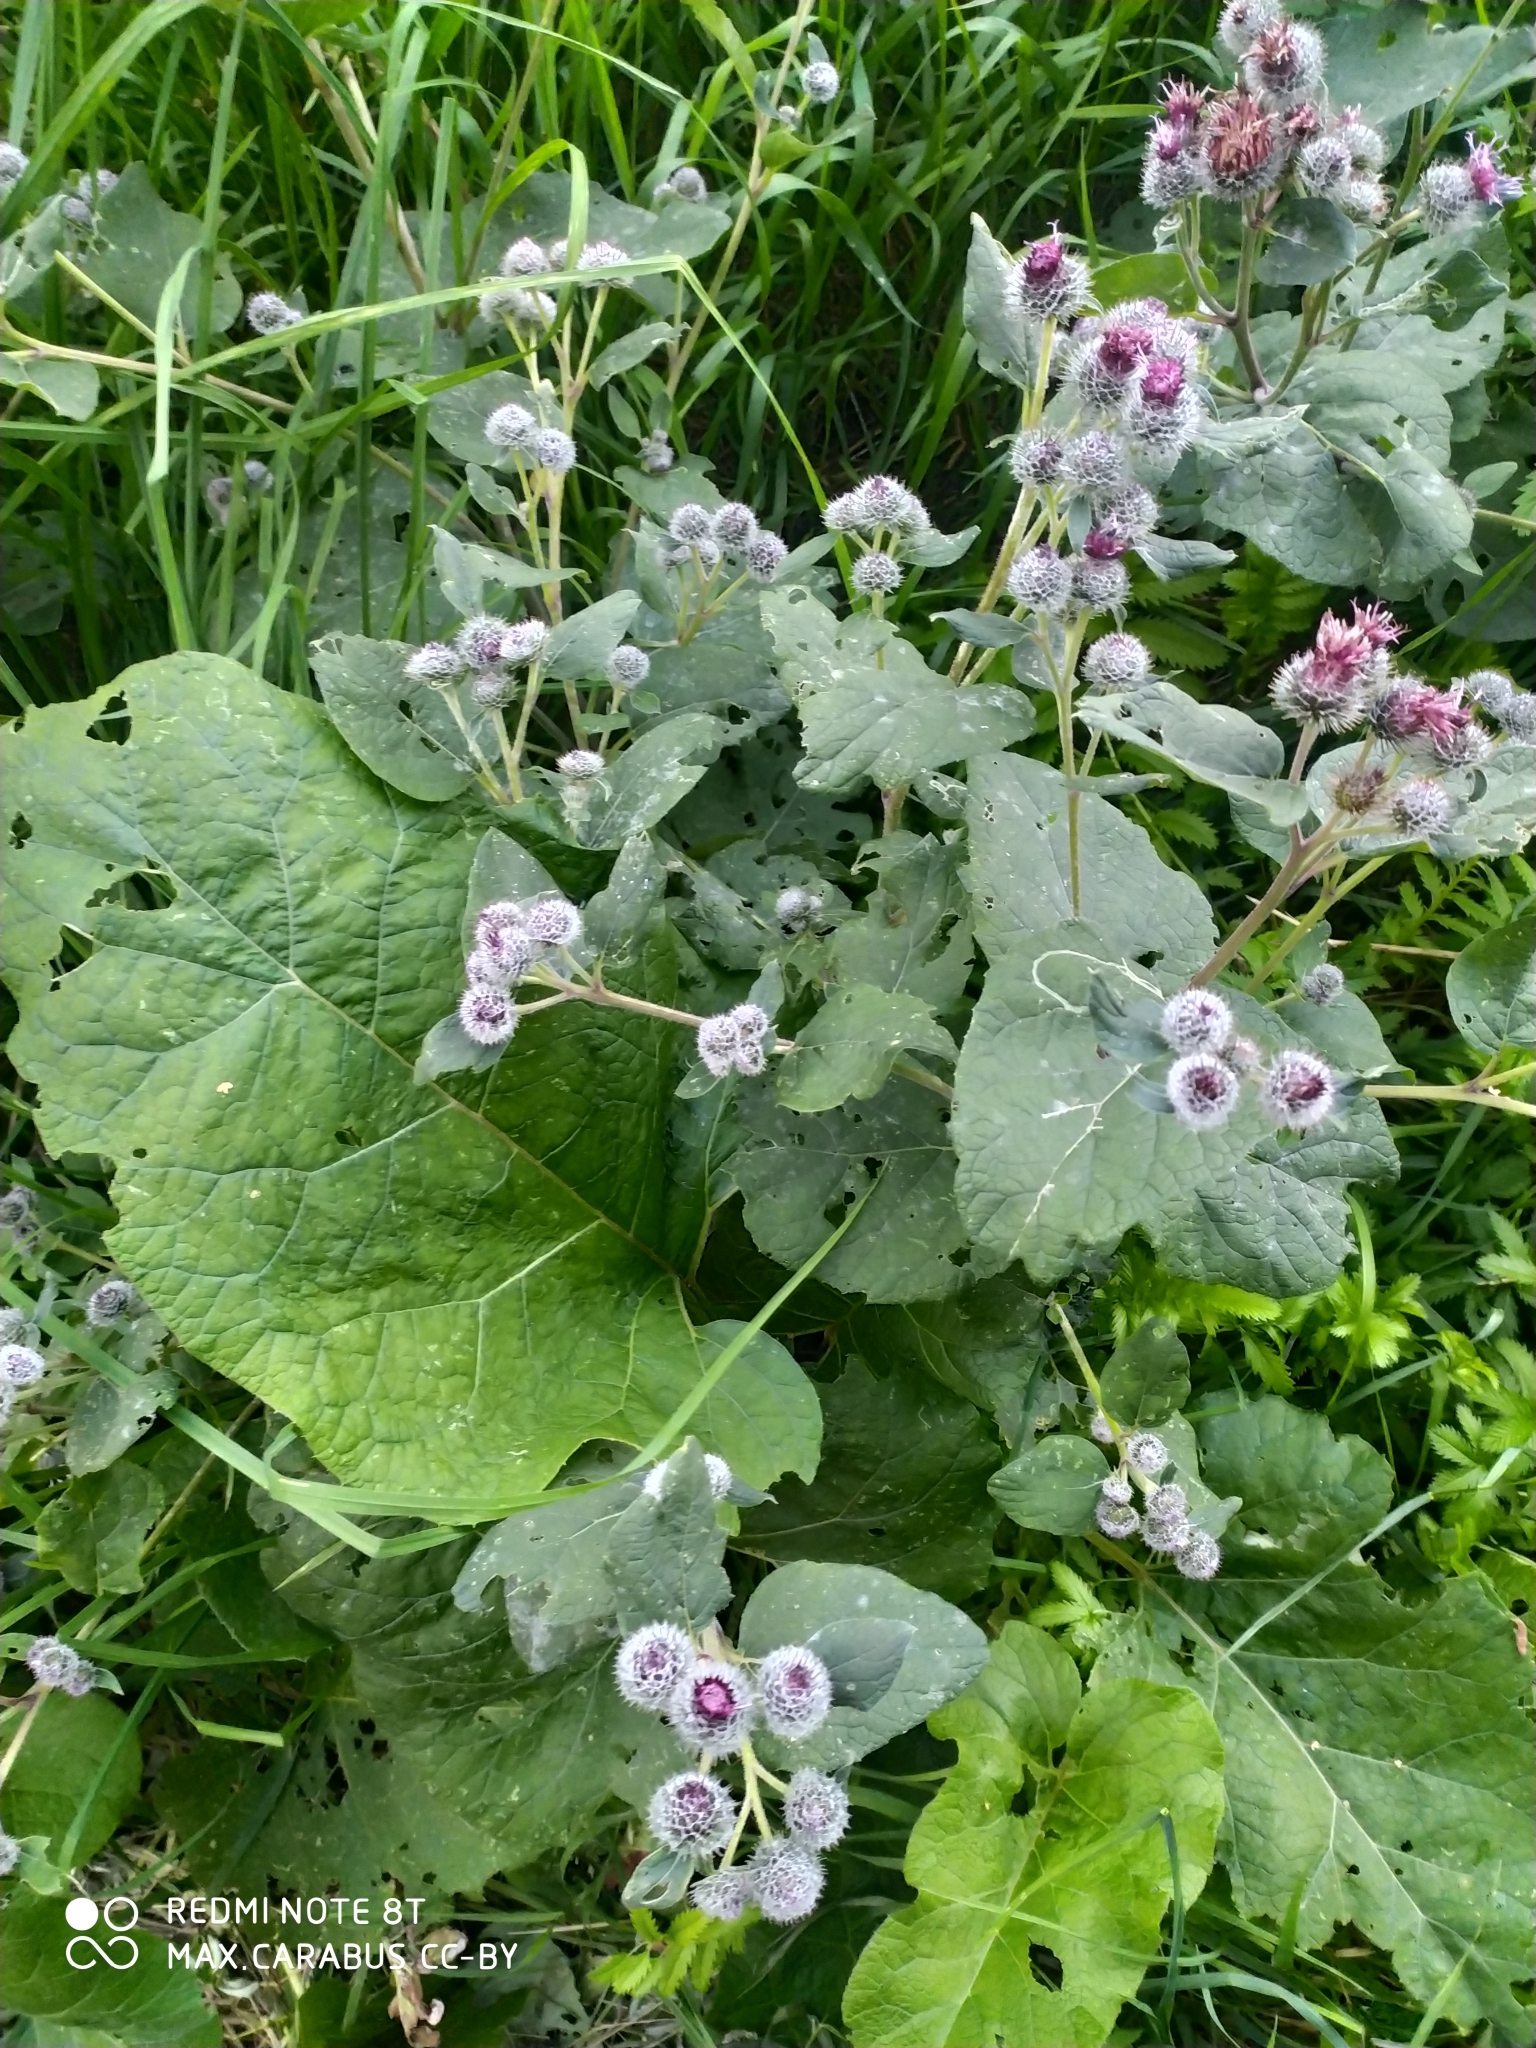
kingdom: Plantae
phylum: Tracheophyta
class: Magnoliopsida
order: Asterales
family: Asteraceae
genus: Arctium
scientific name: Arctium tomentosum
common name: Woolly burdock
